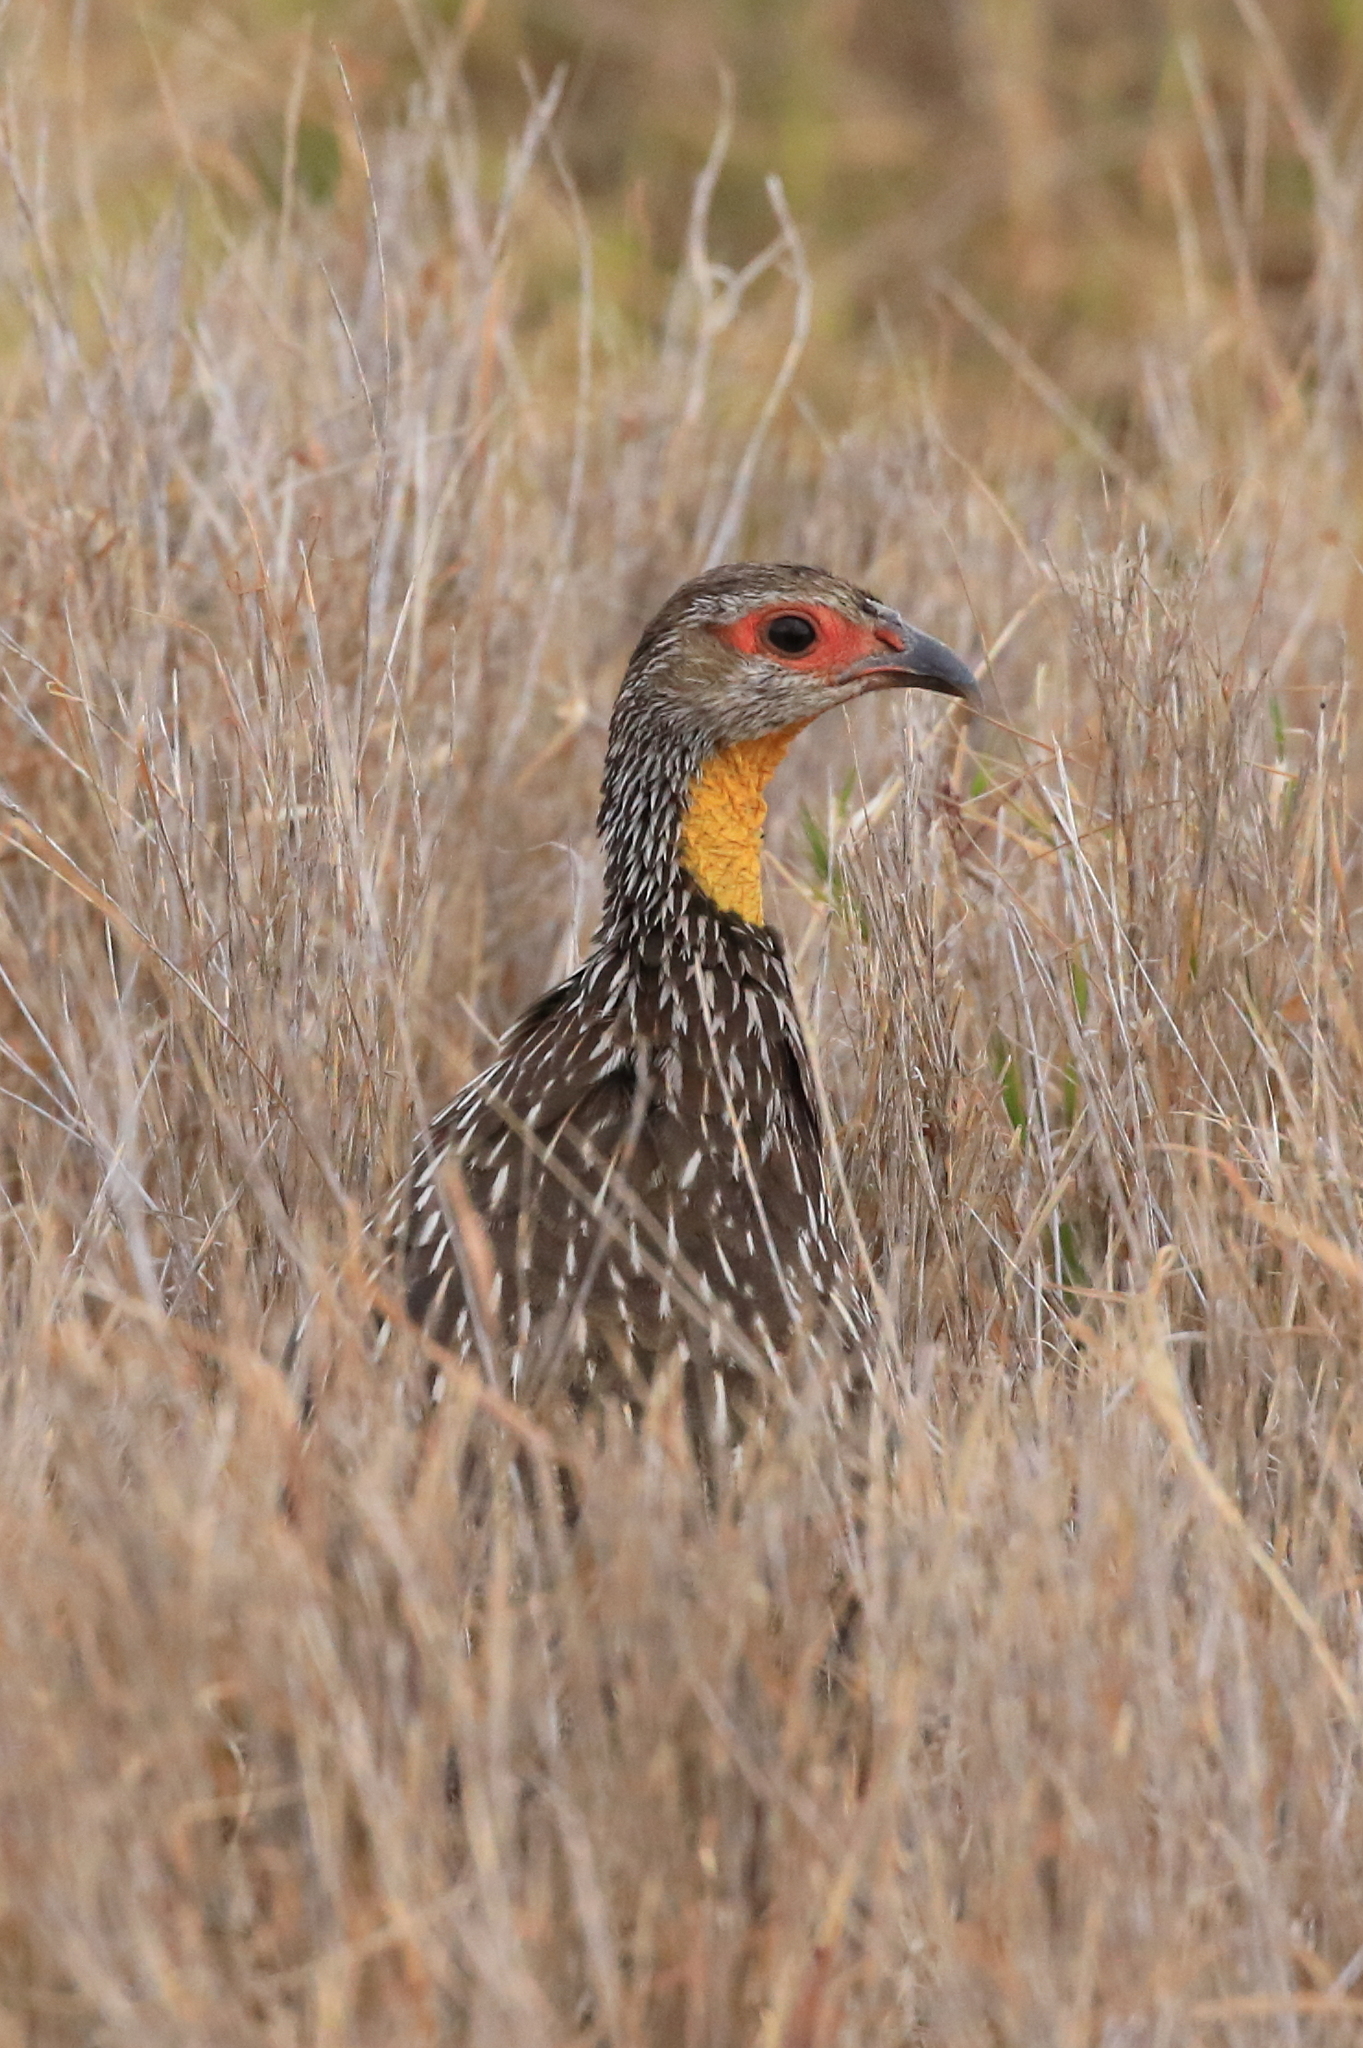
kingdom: Animalia
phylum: Chordata
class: Aves
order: Galliformes
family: Phasianidae
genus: Pternistis
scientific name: Pternistis leucoscepus
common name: Yellow-necked spurfowl
